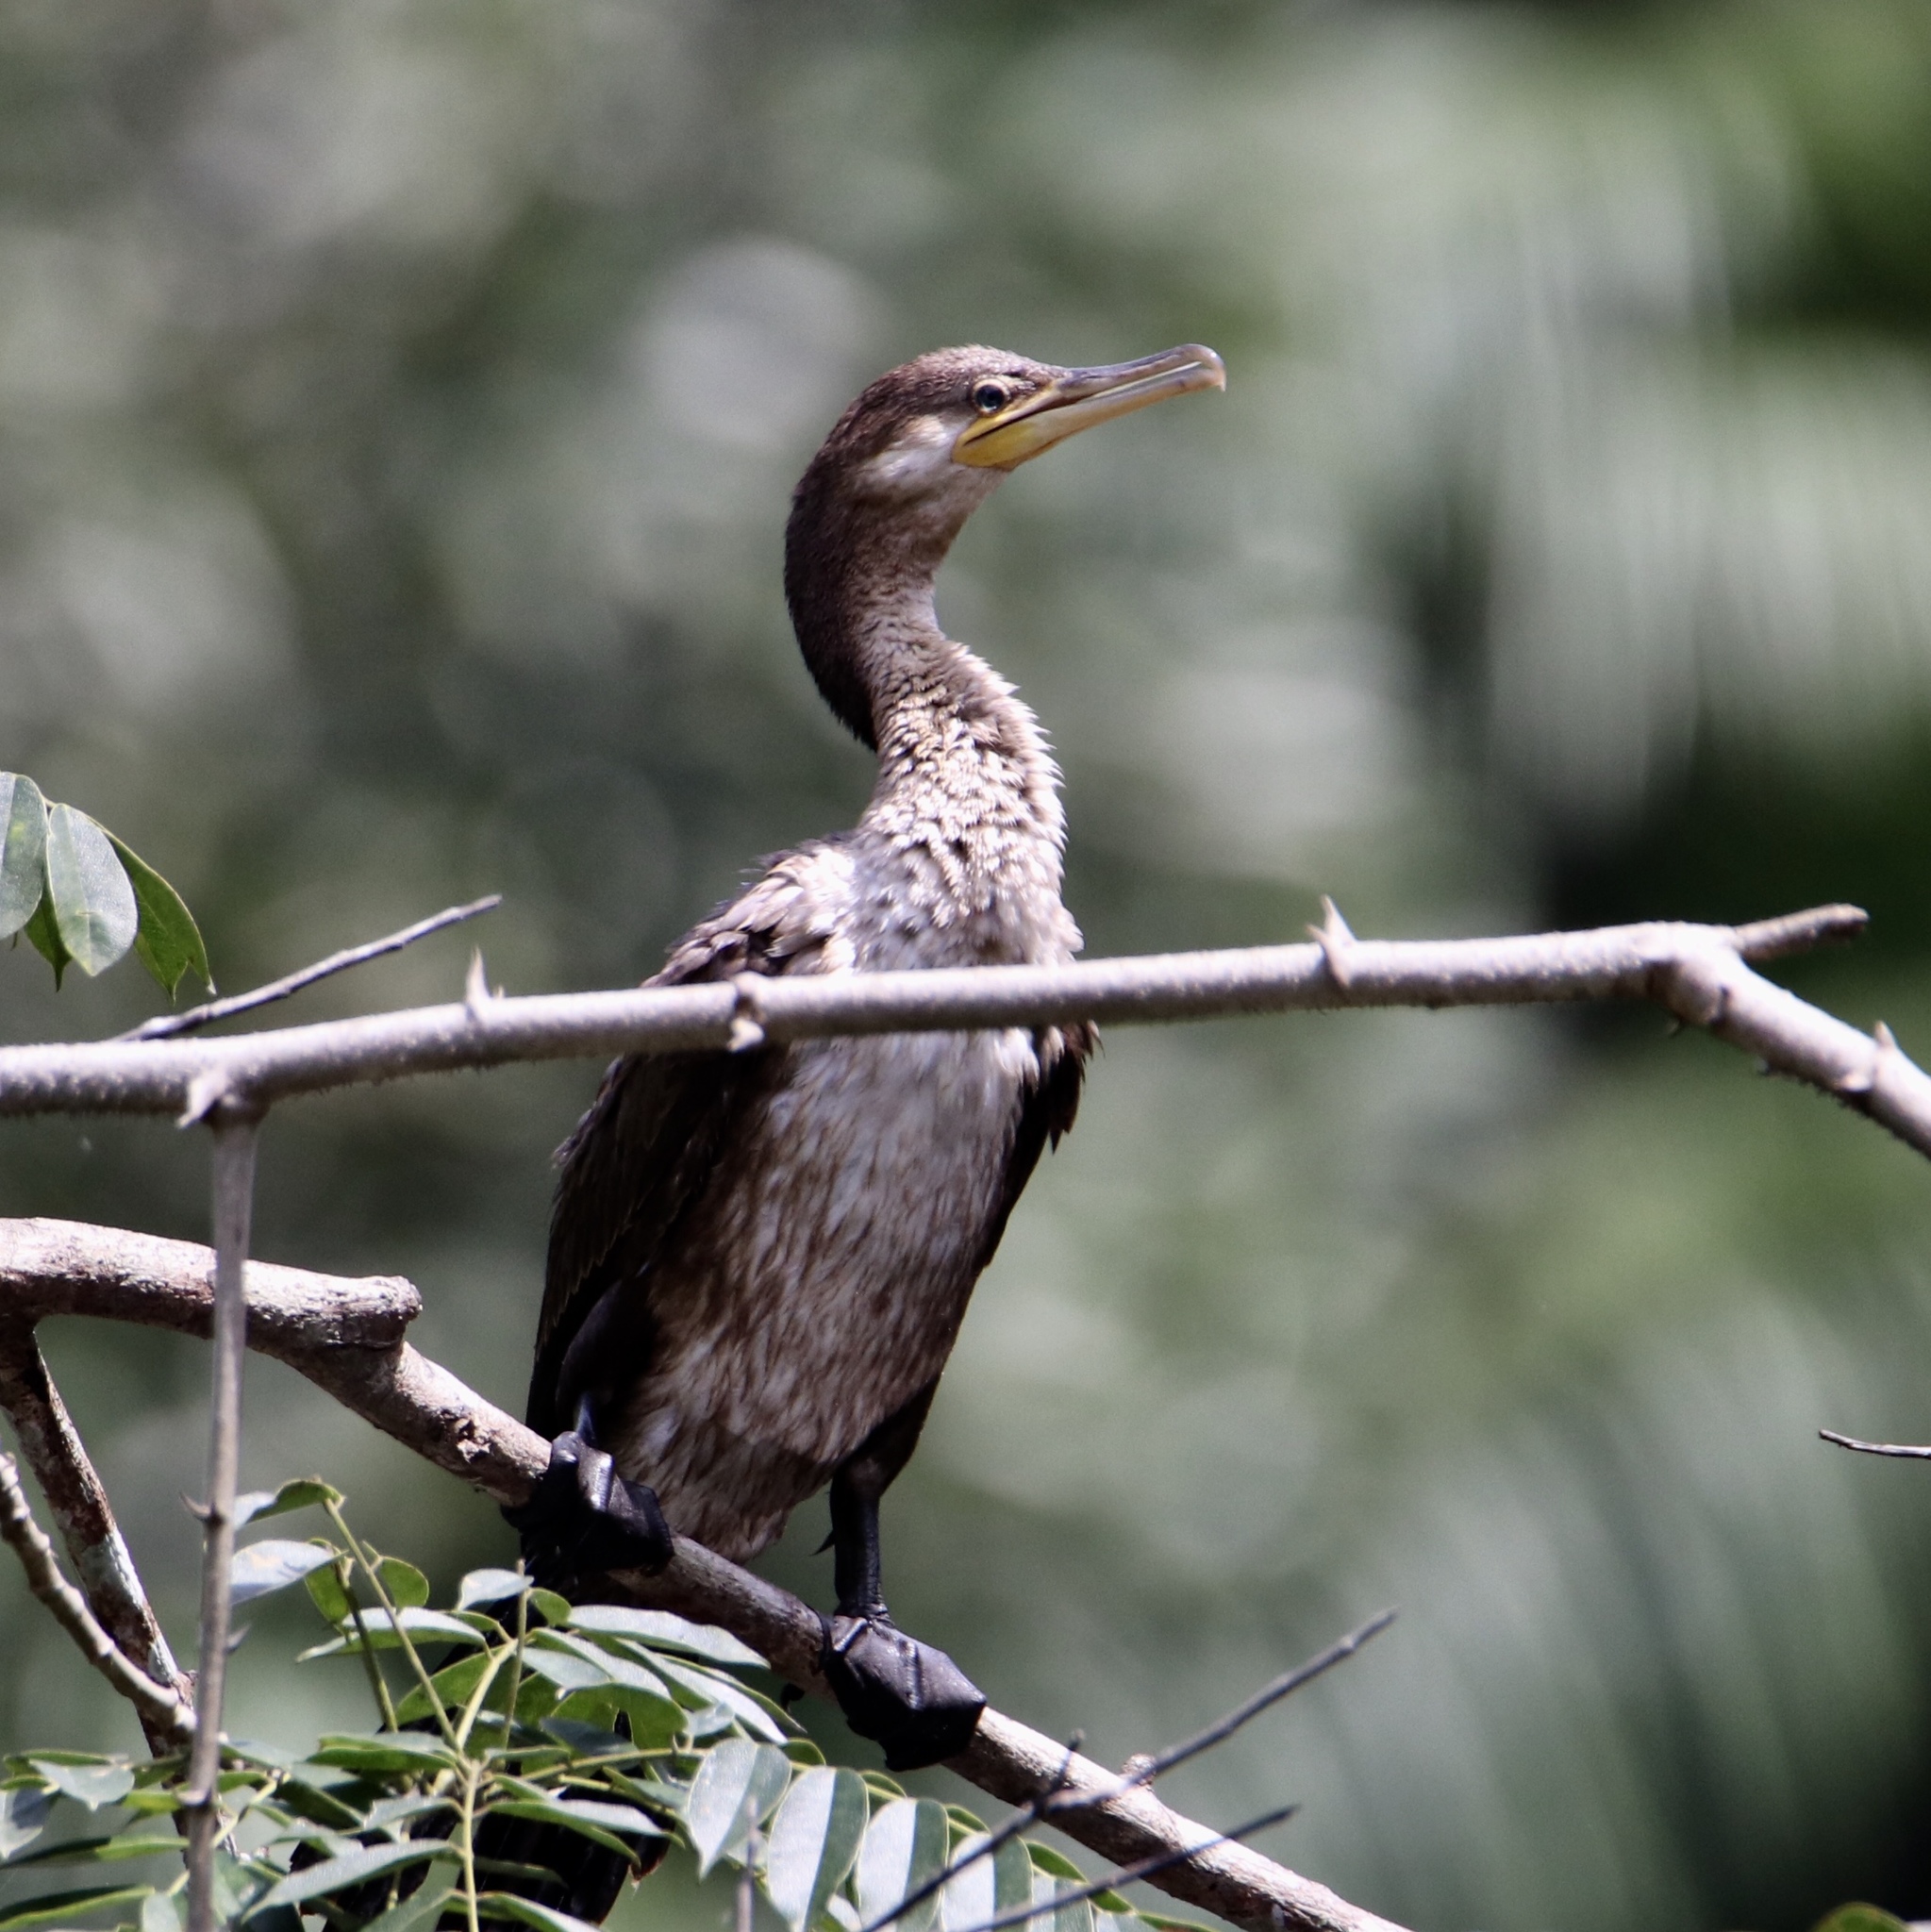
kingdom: Animalia
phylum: Chordata
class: Aves
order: Suliformes
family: Phalacrocoracidae
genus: Phalacrocorax
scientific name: Phalacrocorax brasilianus
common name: Neotropic cormorant
